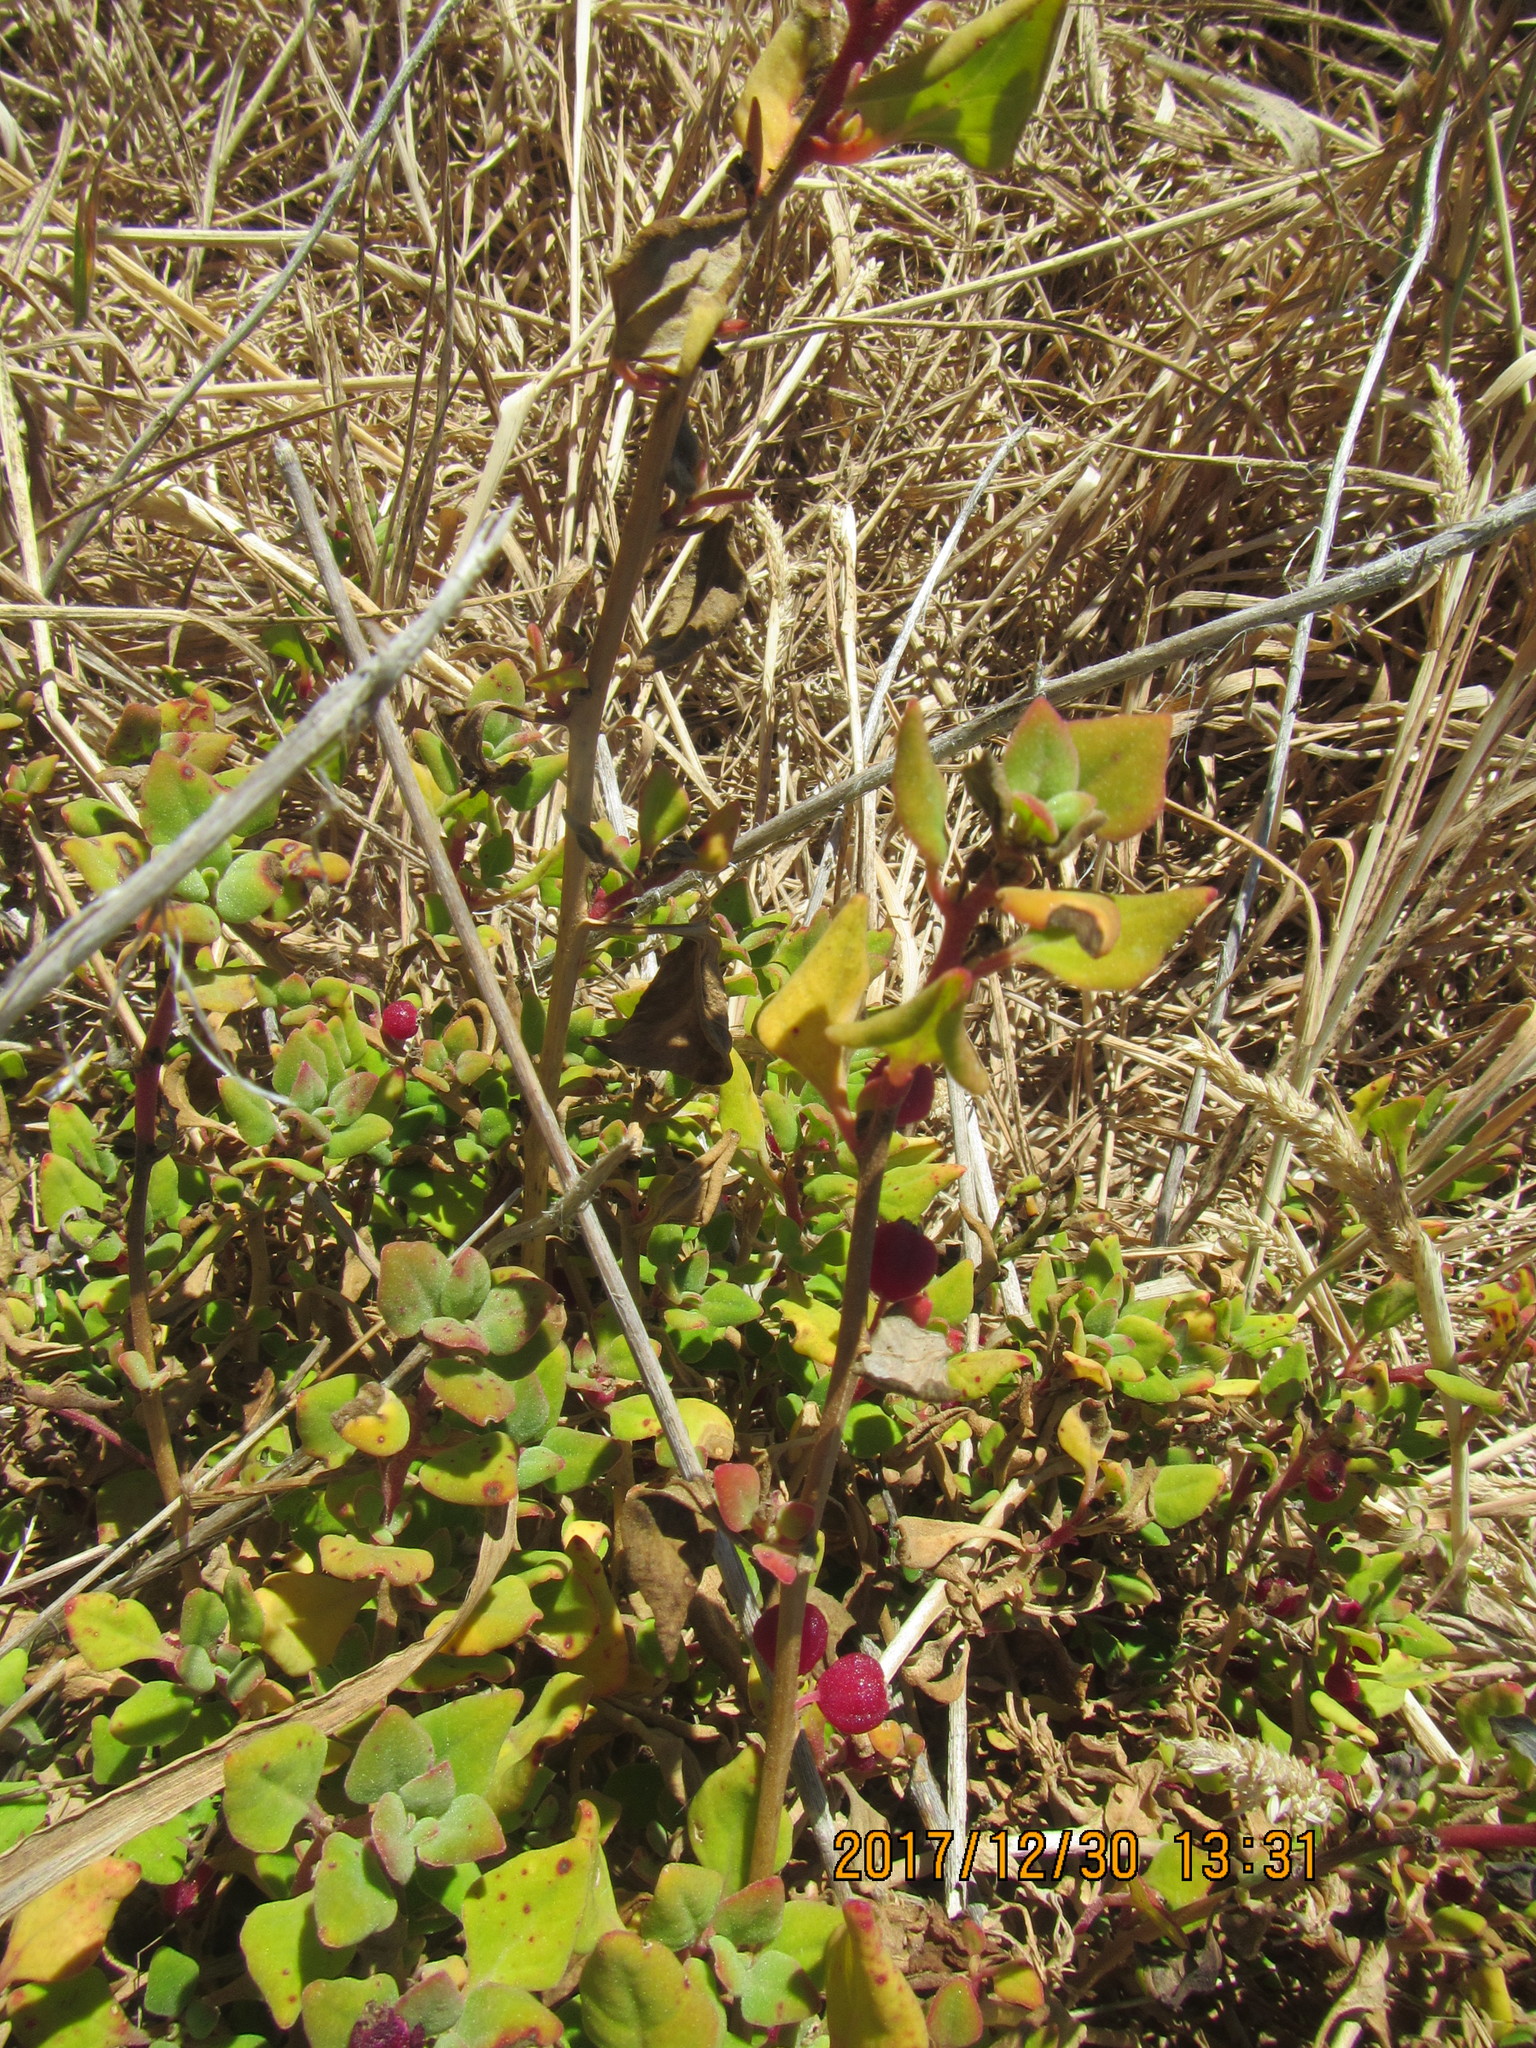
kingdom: Plantae
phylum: Tracheophyta
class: Magnoliopsida
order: Caryophyllales
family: Aizoaceae
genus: Tetragonia
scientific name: Tetragonia implexicoma
